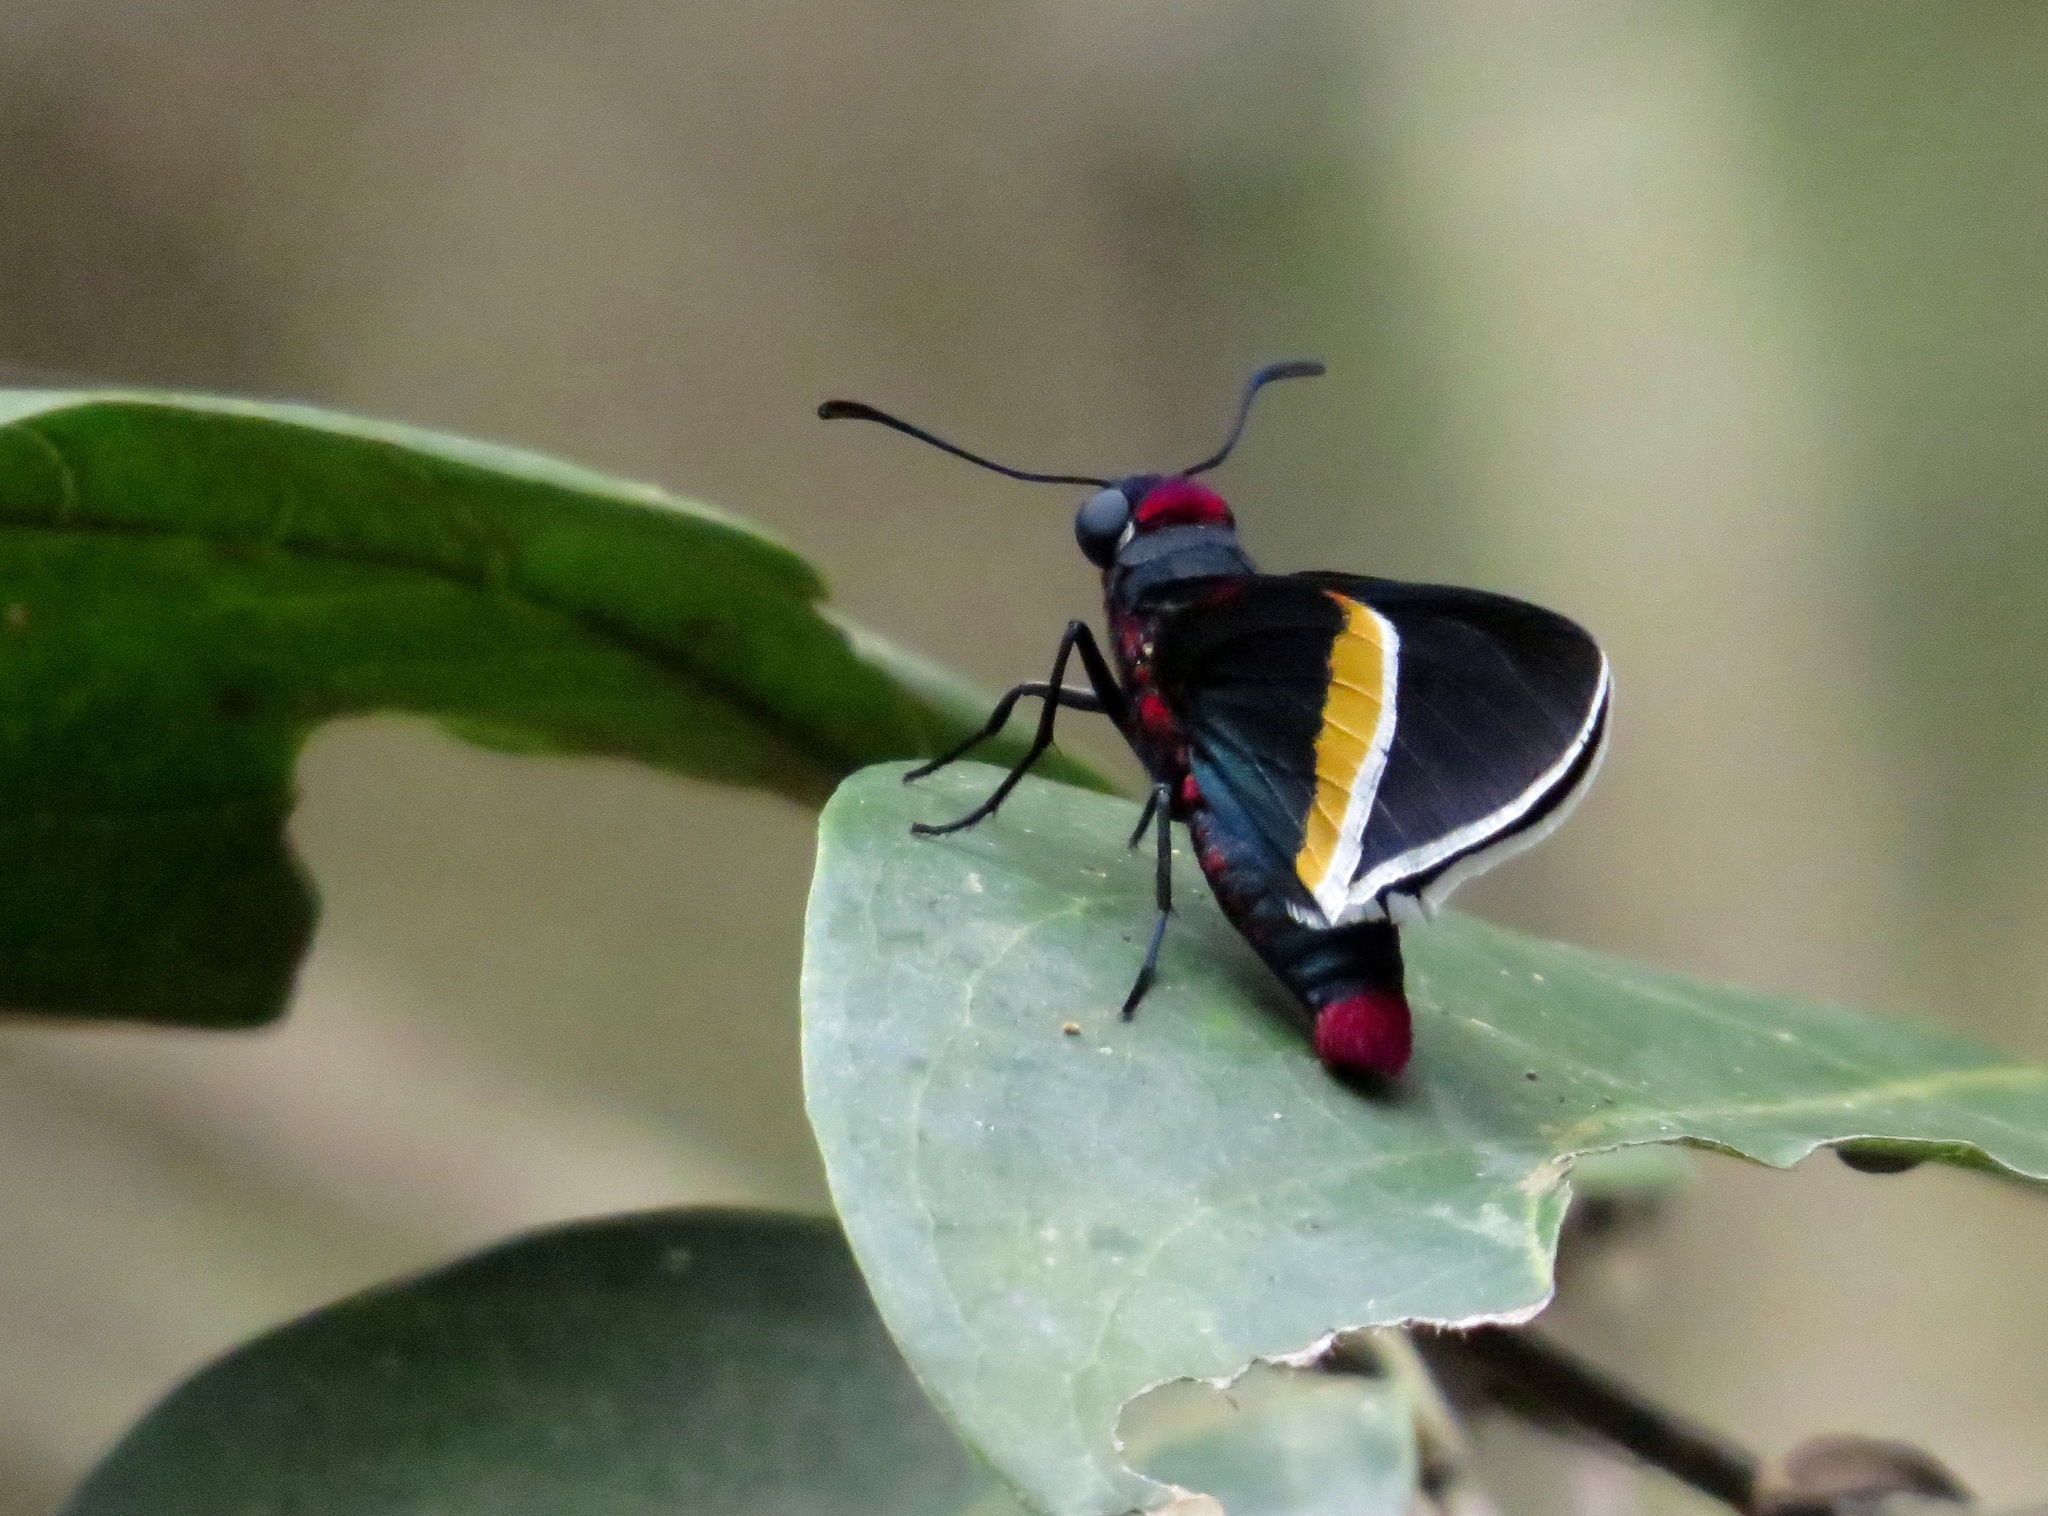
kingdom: Animalia
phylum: Arthropoda
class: Insecta
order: Lepidoptera
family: Hesperiidae
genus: Mysoria
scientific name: Mysoria barcastus
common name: Royal firetip
